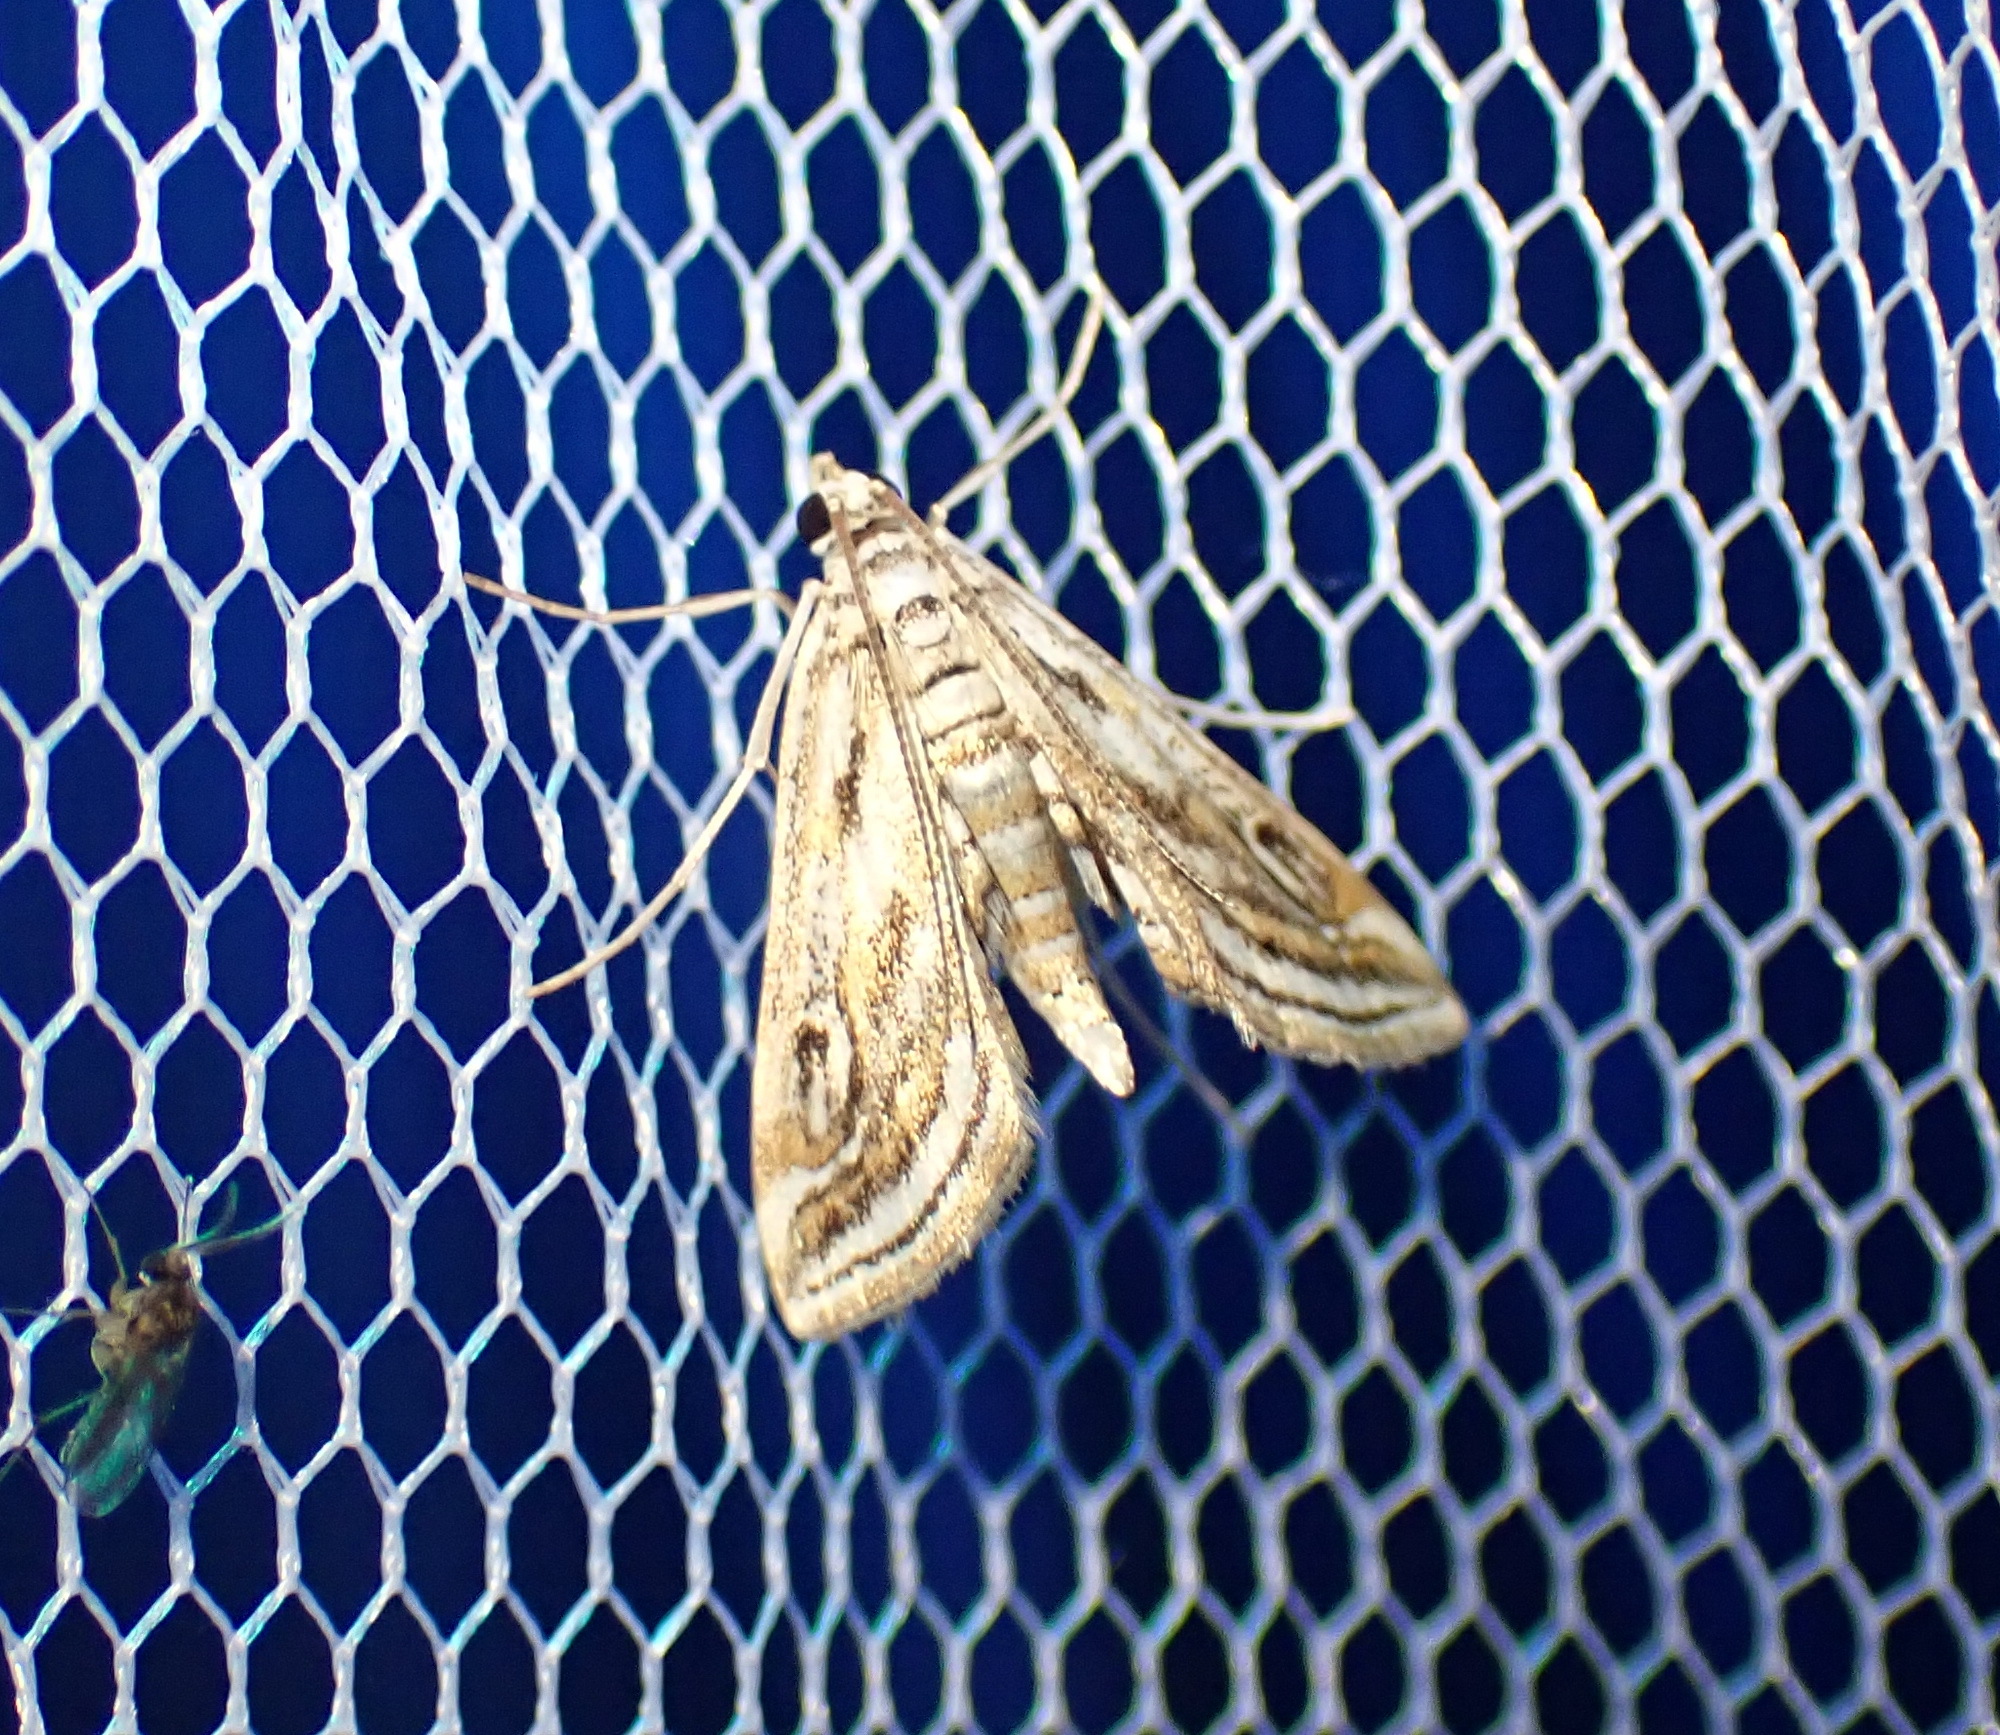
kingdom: Animalia
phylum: Arthropoda
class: Insecta
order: Lepidoptera
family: Crambidae
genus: Parapoynx
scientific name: Parapoynx fluctuosalis
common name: Moth
